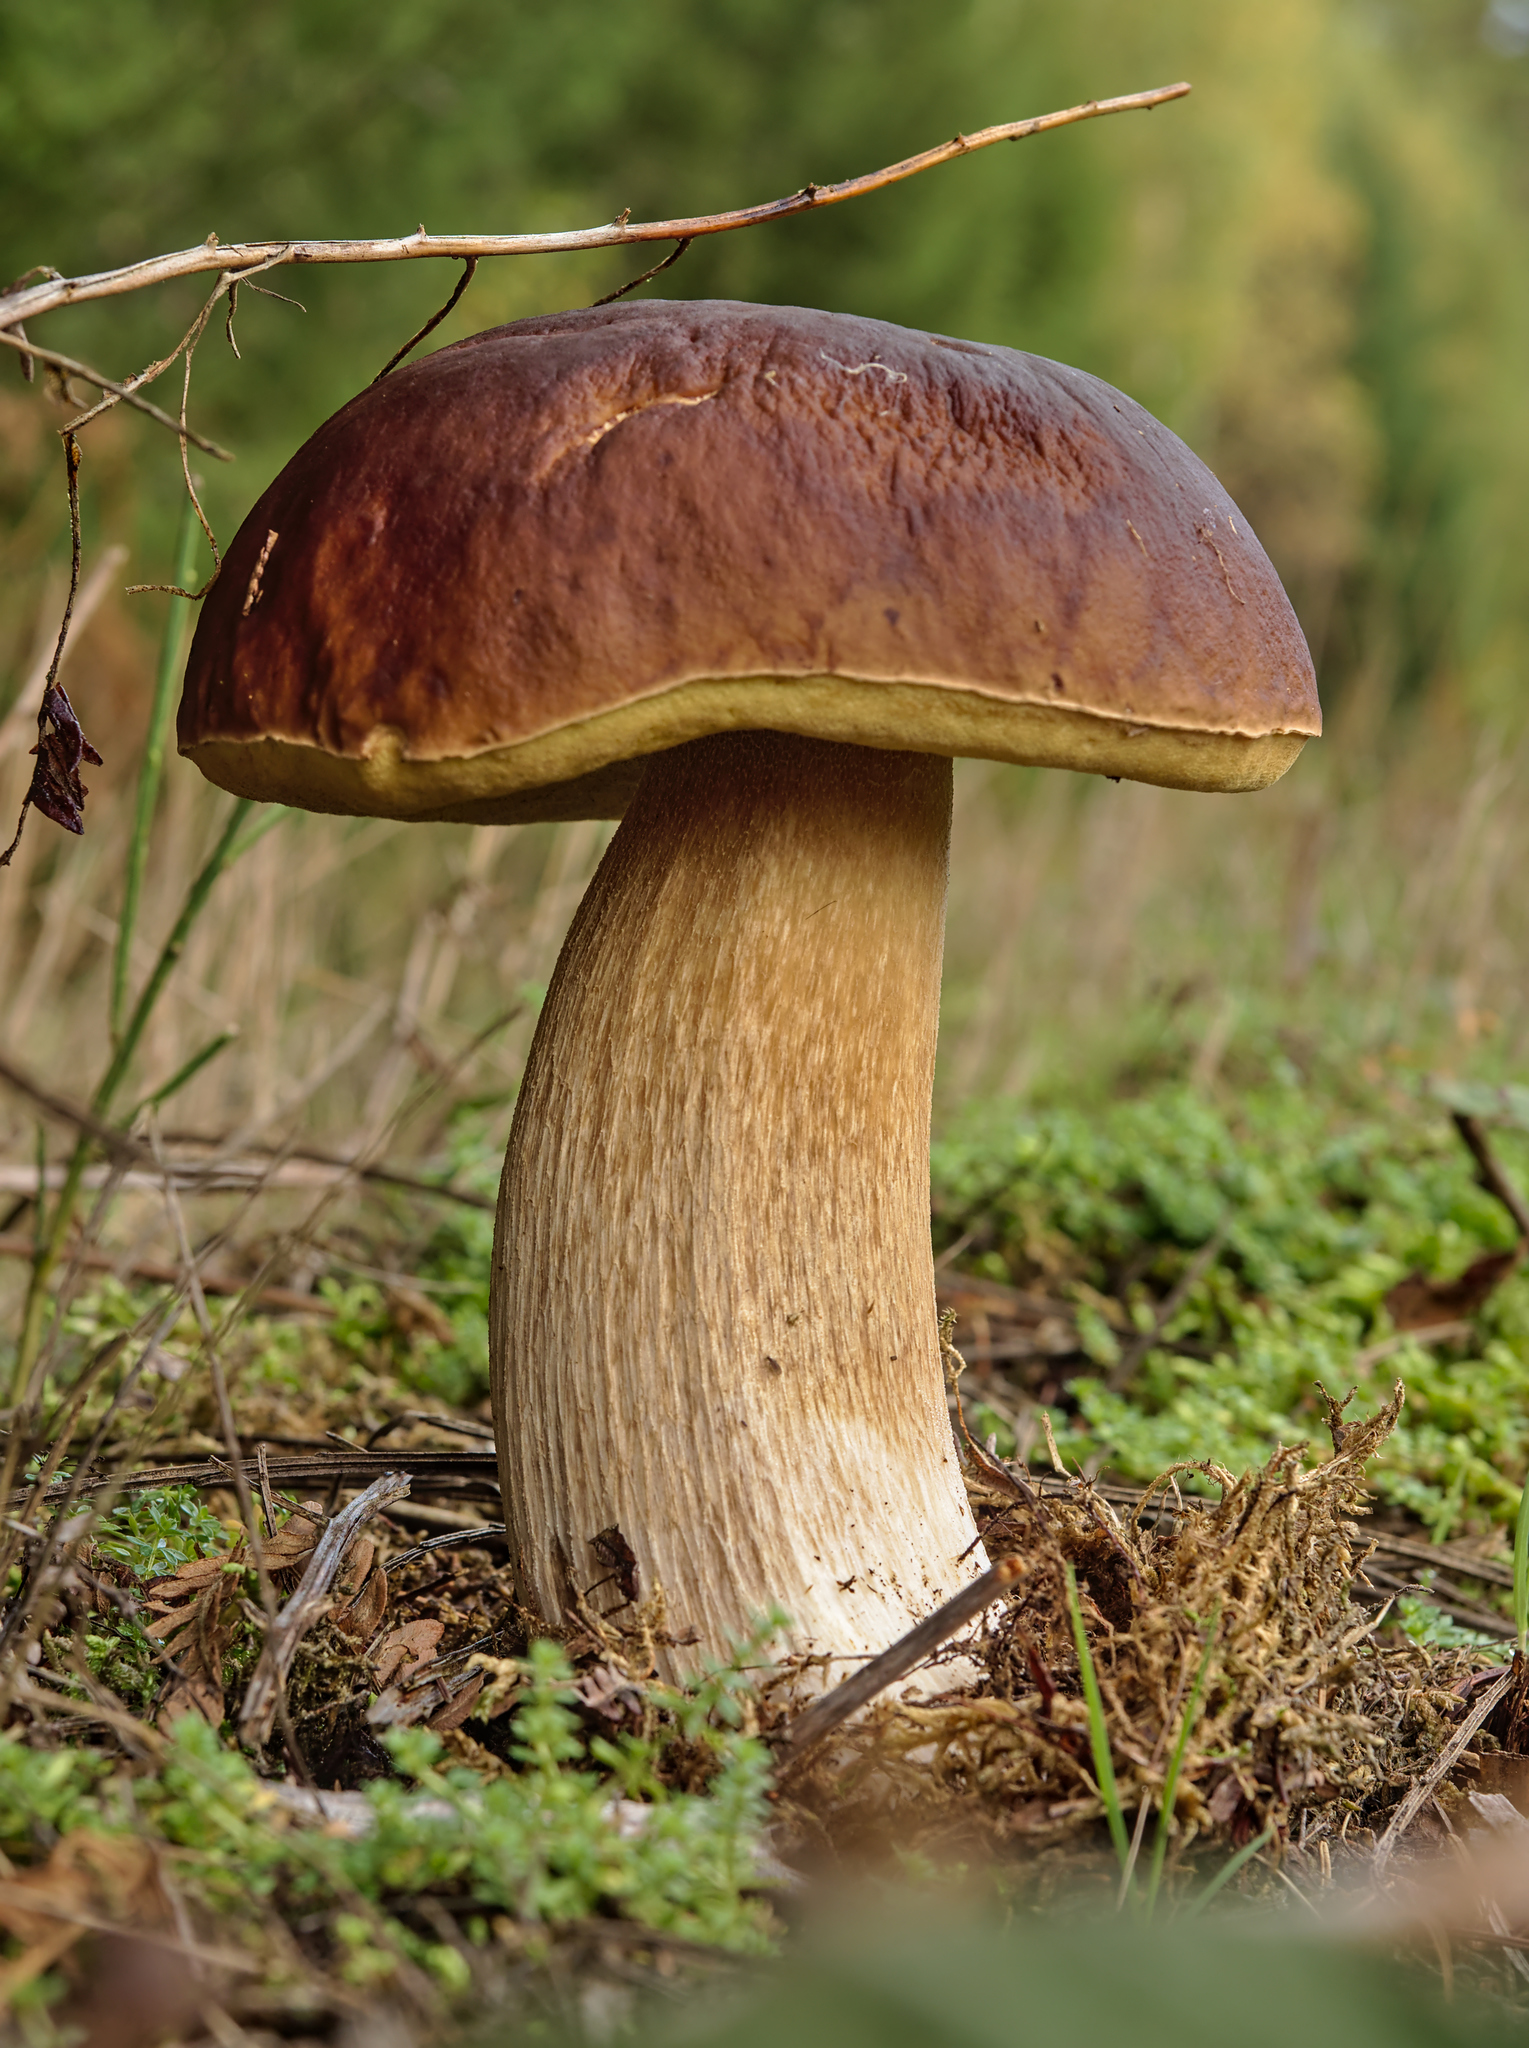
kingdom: Fungi
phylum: Basidiomycota
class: Agaricomycetes
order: Boletales
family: Boletaceae
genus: Boletus
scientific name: Boletus edulis
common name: Cep
